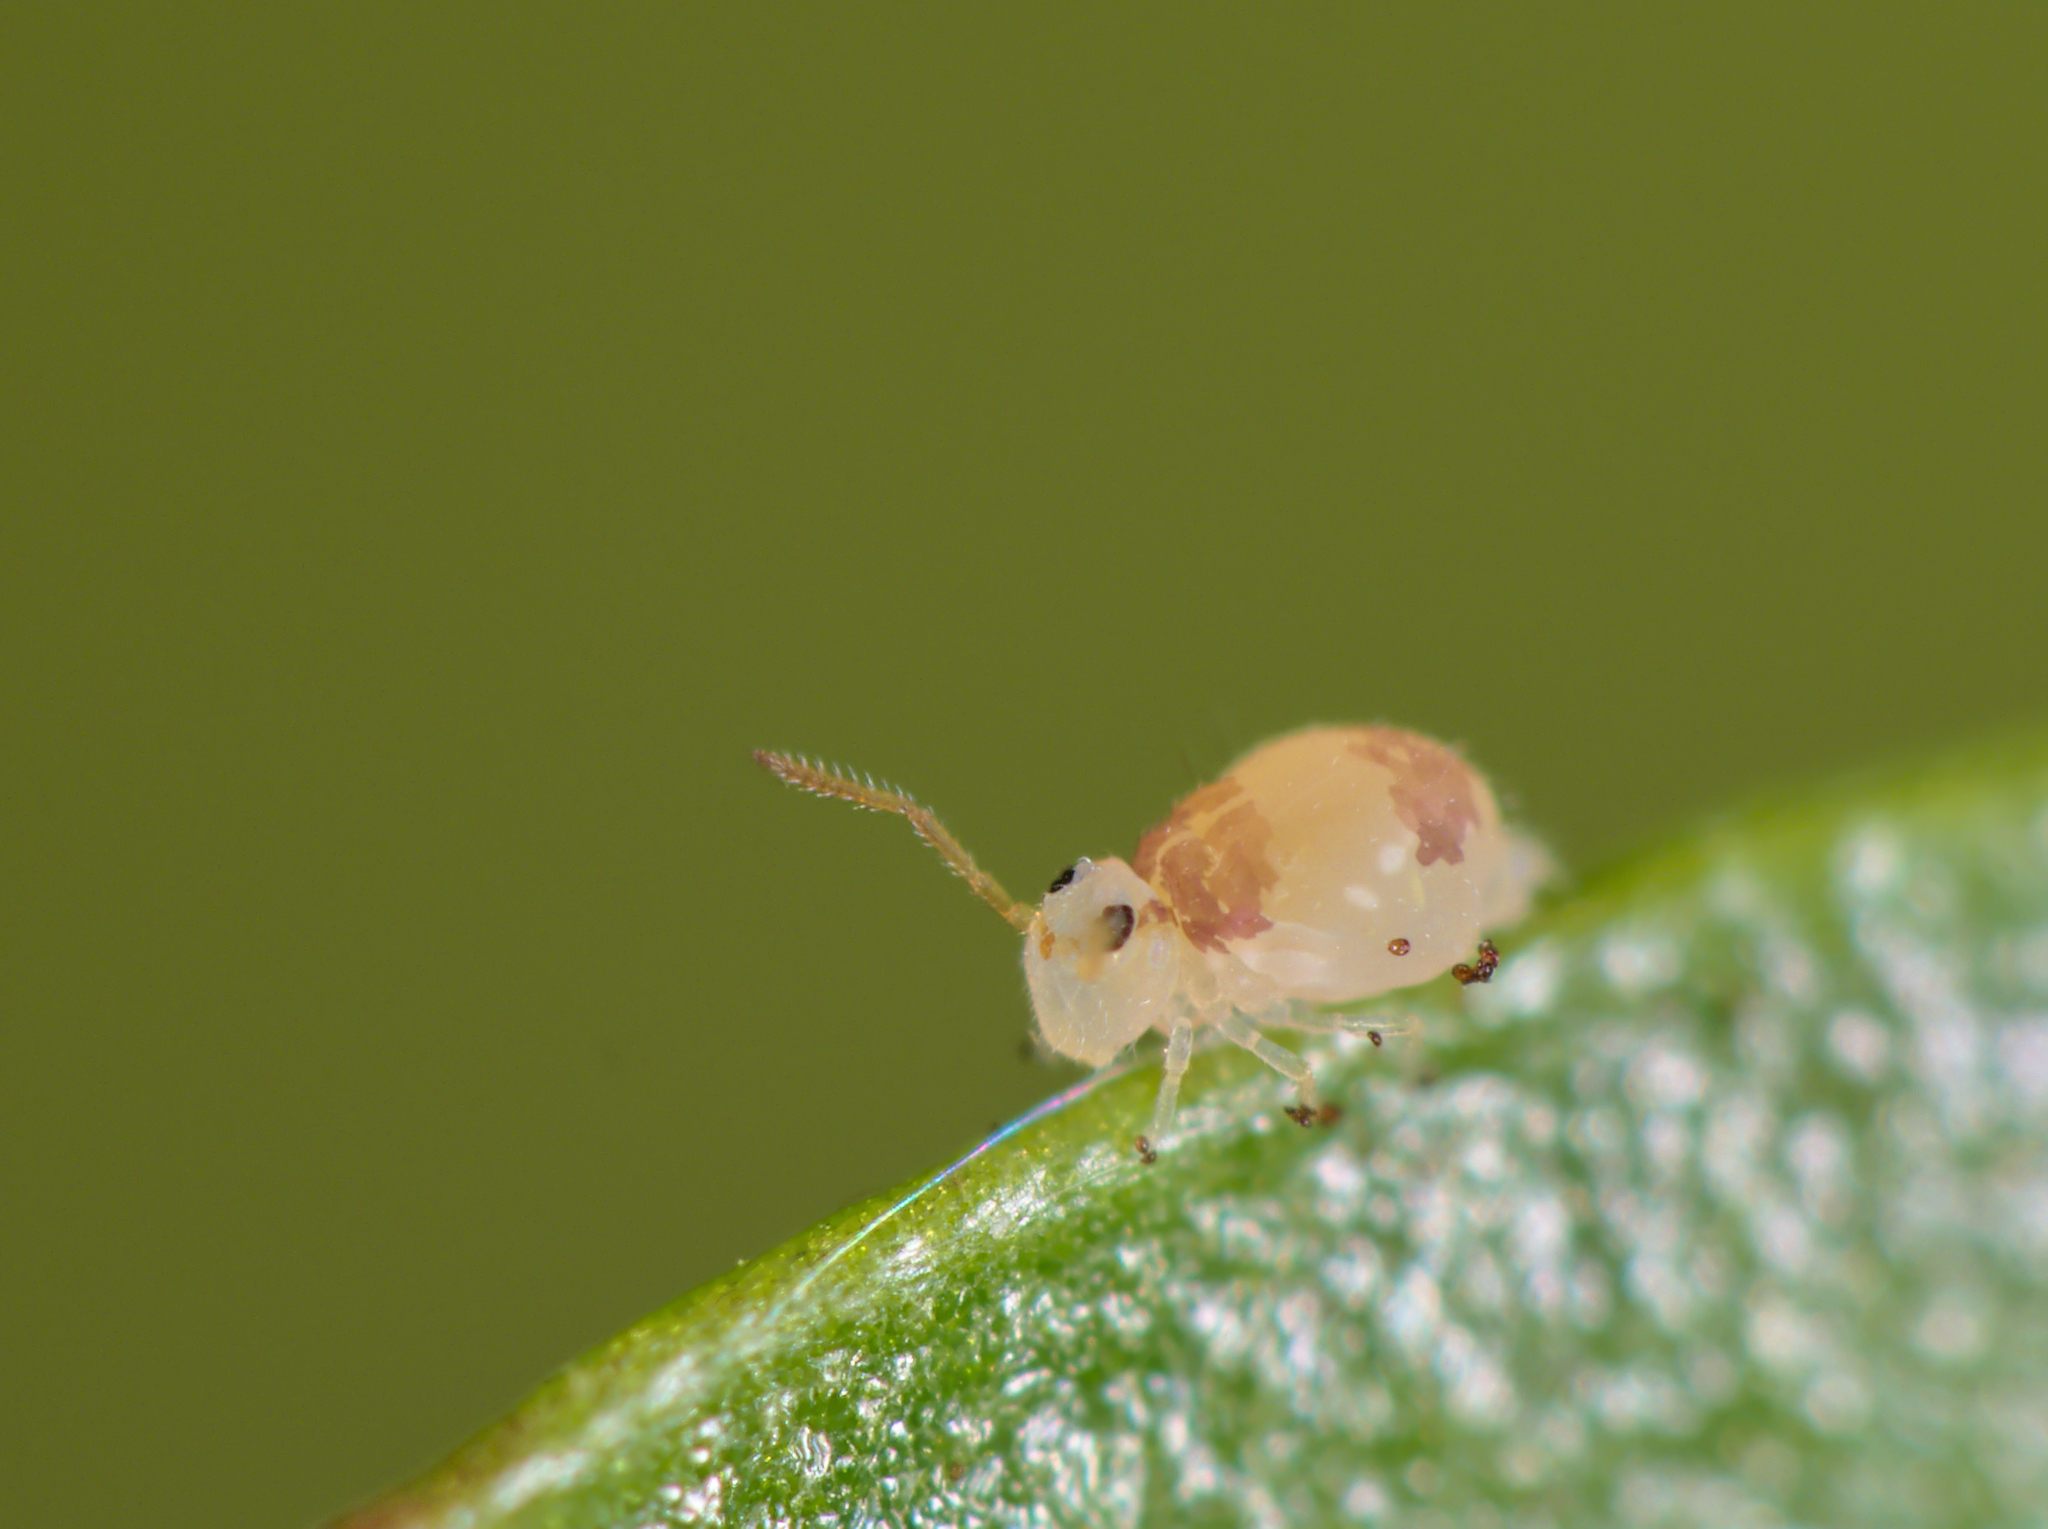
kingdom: Animalia
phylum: Arthropoda
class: Collembola
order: Symphypleona
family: Bourletiellidae
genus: Deuterosminthurus
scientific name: Deuterosminthurus bicinctus
